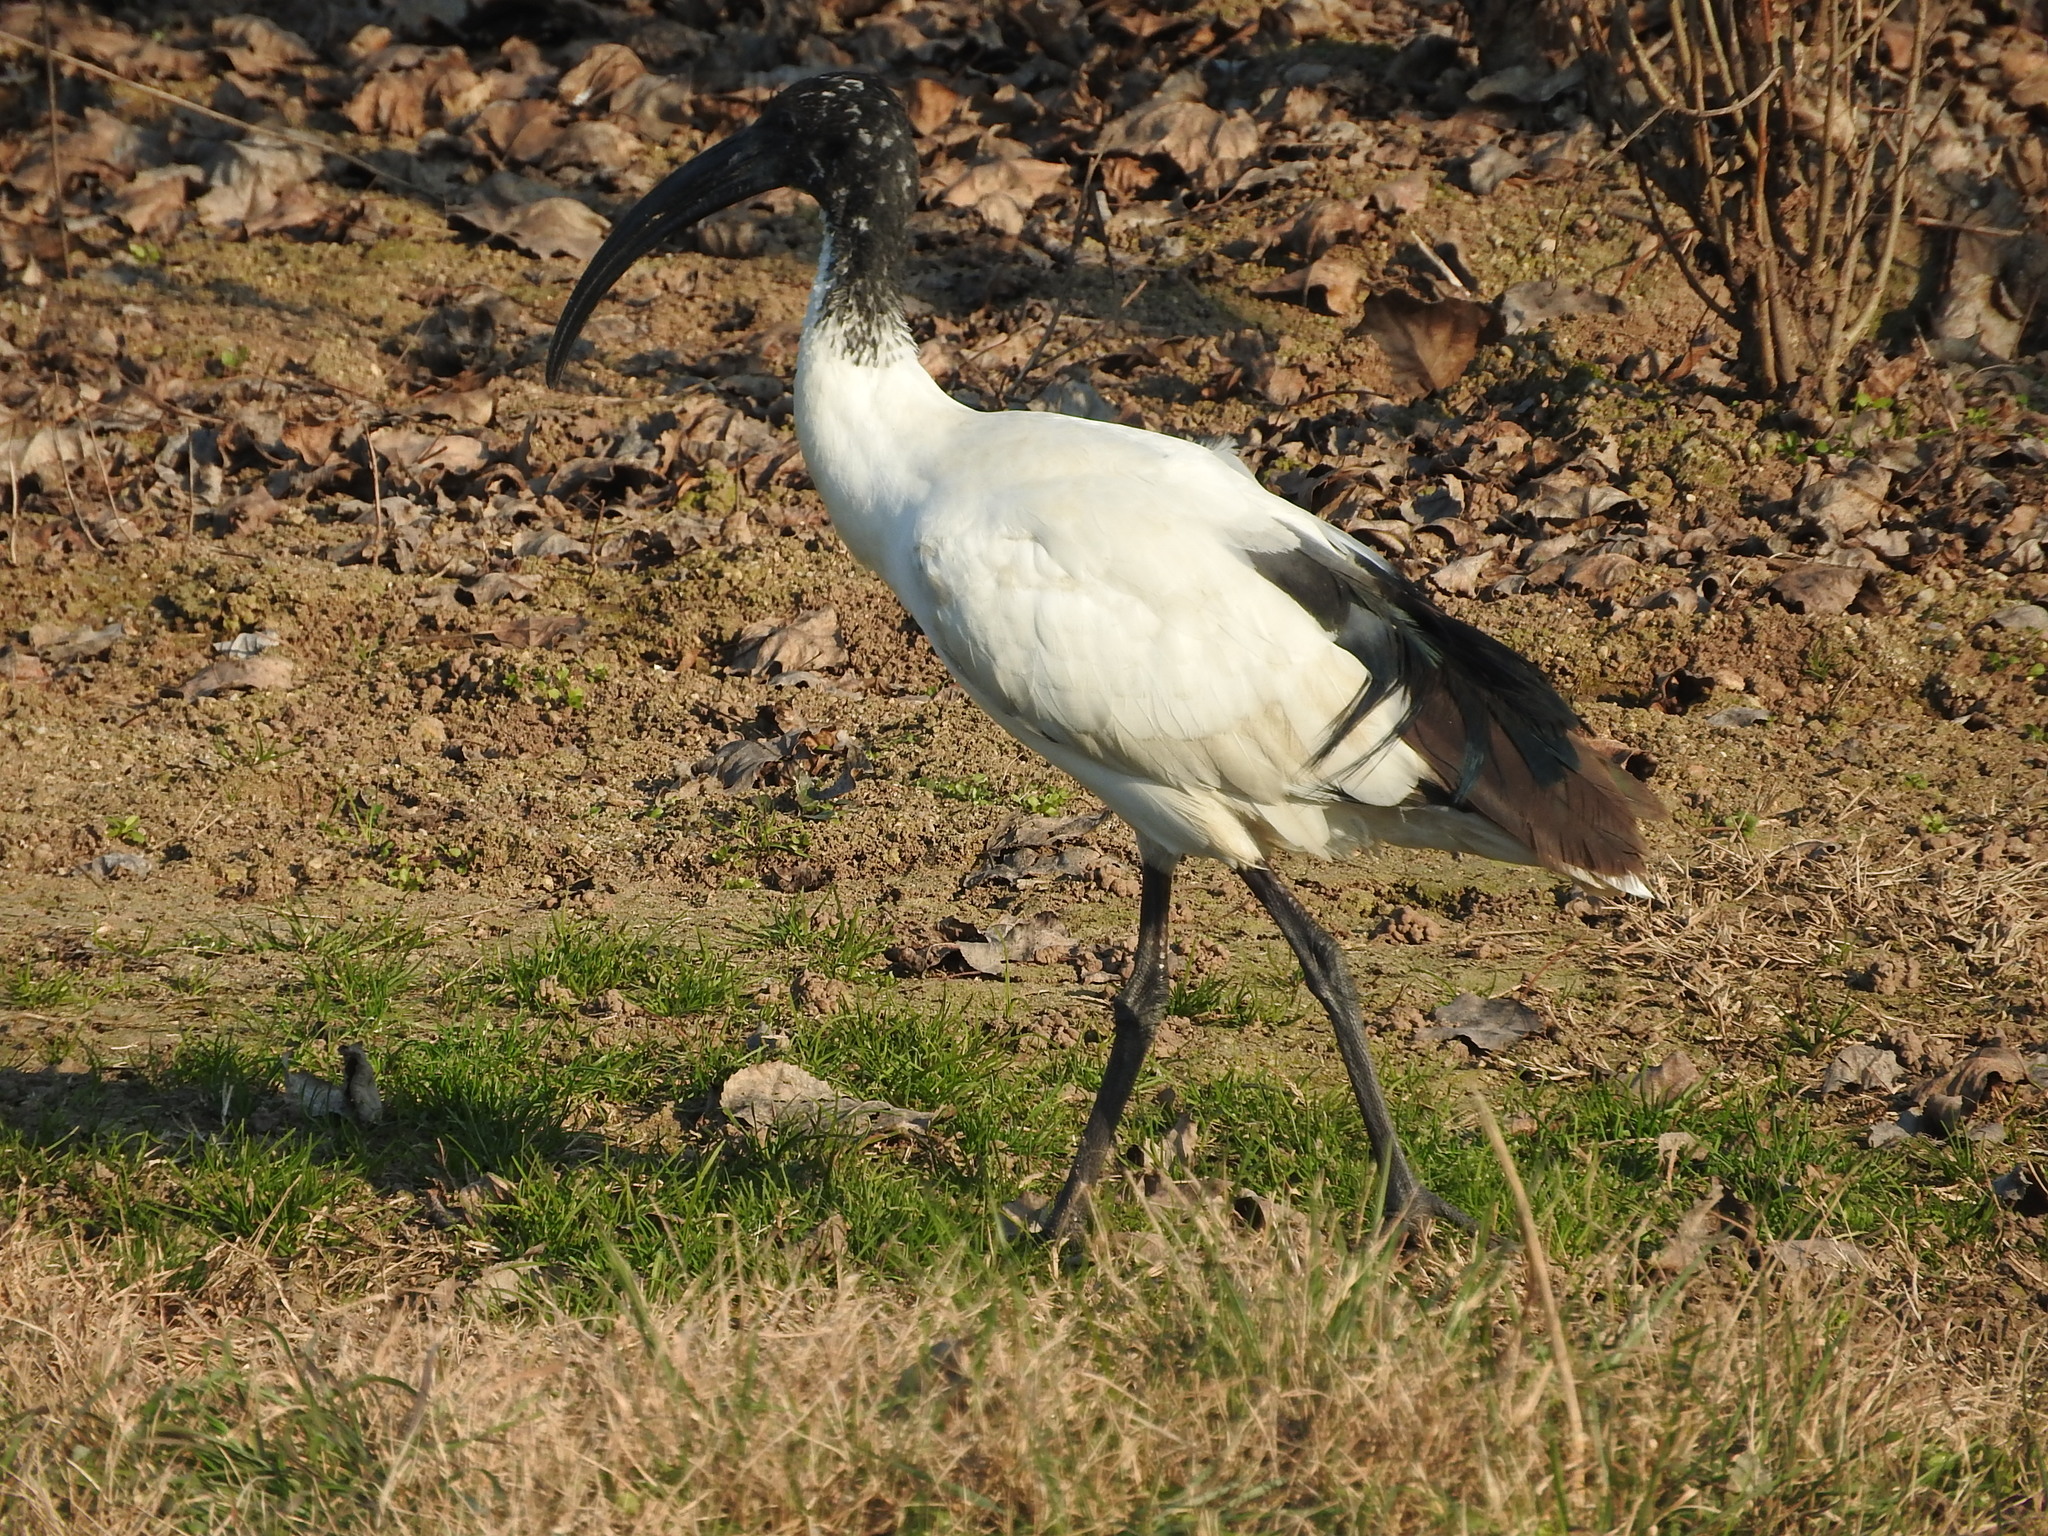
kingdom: Animalia
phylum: Chordata
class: Aves
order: Pelecaniformes
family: Threskiornithidae
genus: Threskiornis
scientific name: Threskiornis aethiopicus
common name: Sacred ibis
